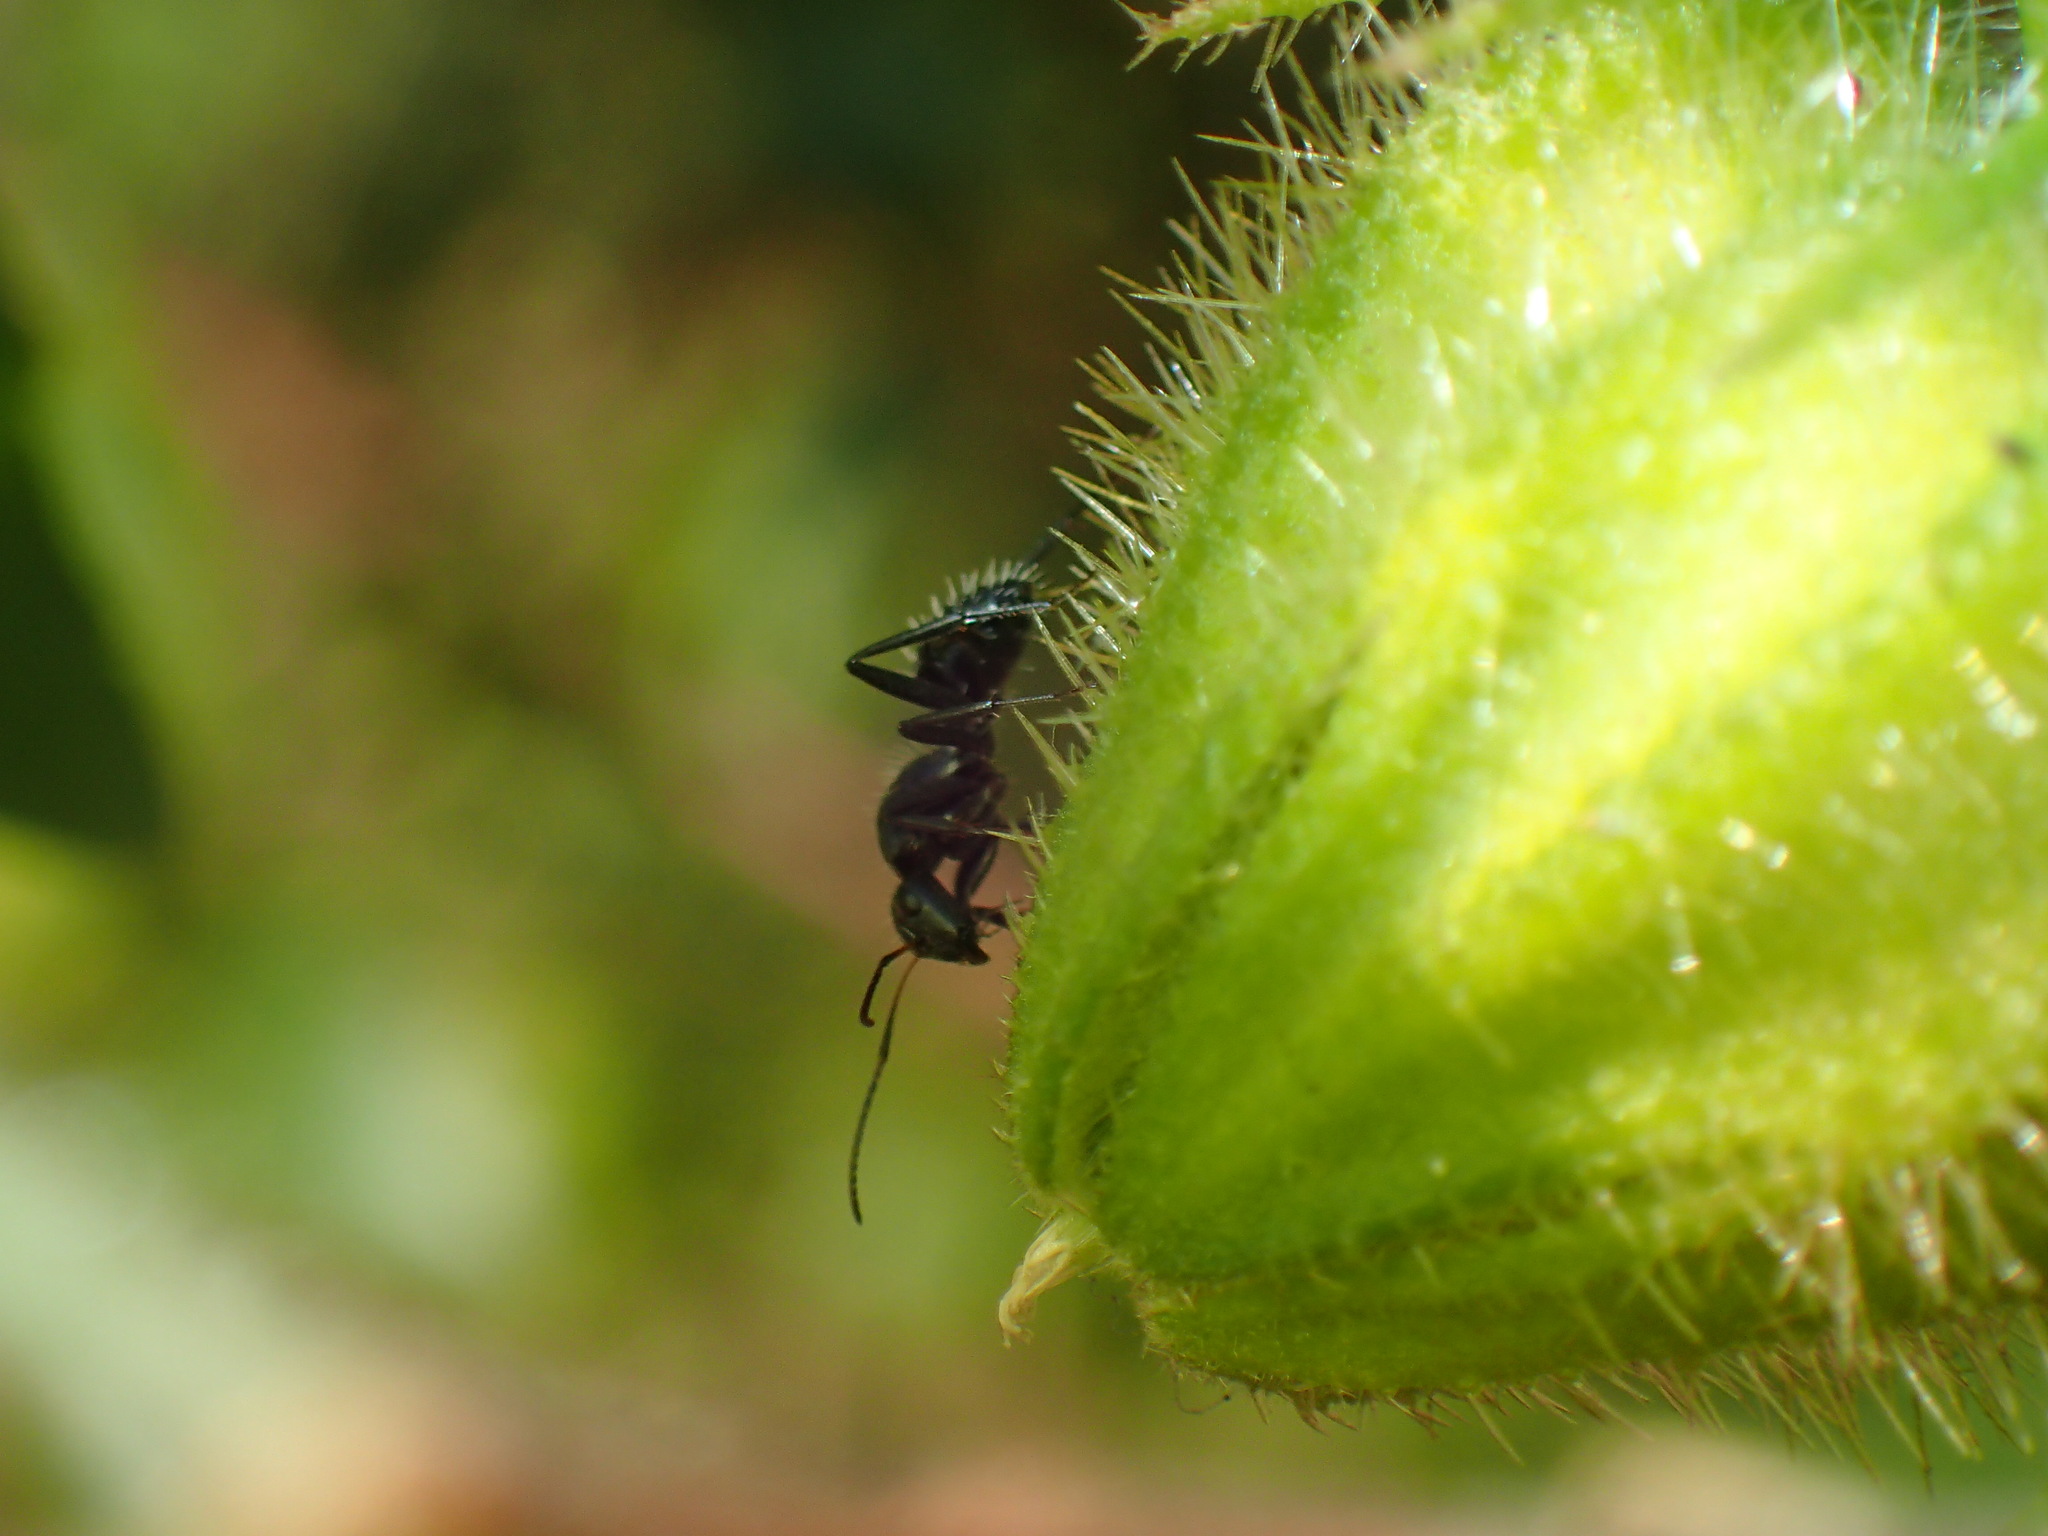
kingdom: Animalia
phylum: Arthropoda
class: Insecta
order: Hymenoptera
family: Formicidae
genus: Camponotus
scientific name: Camponotus niveosetosus
